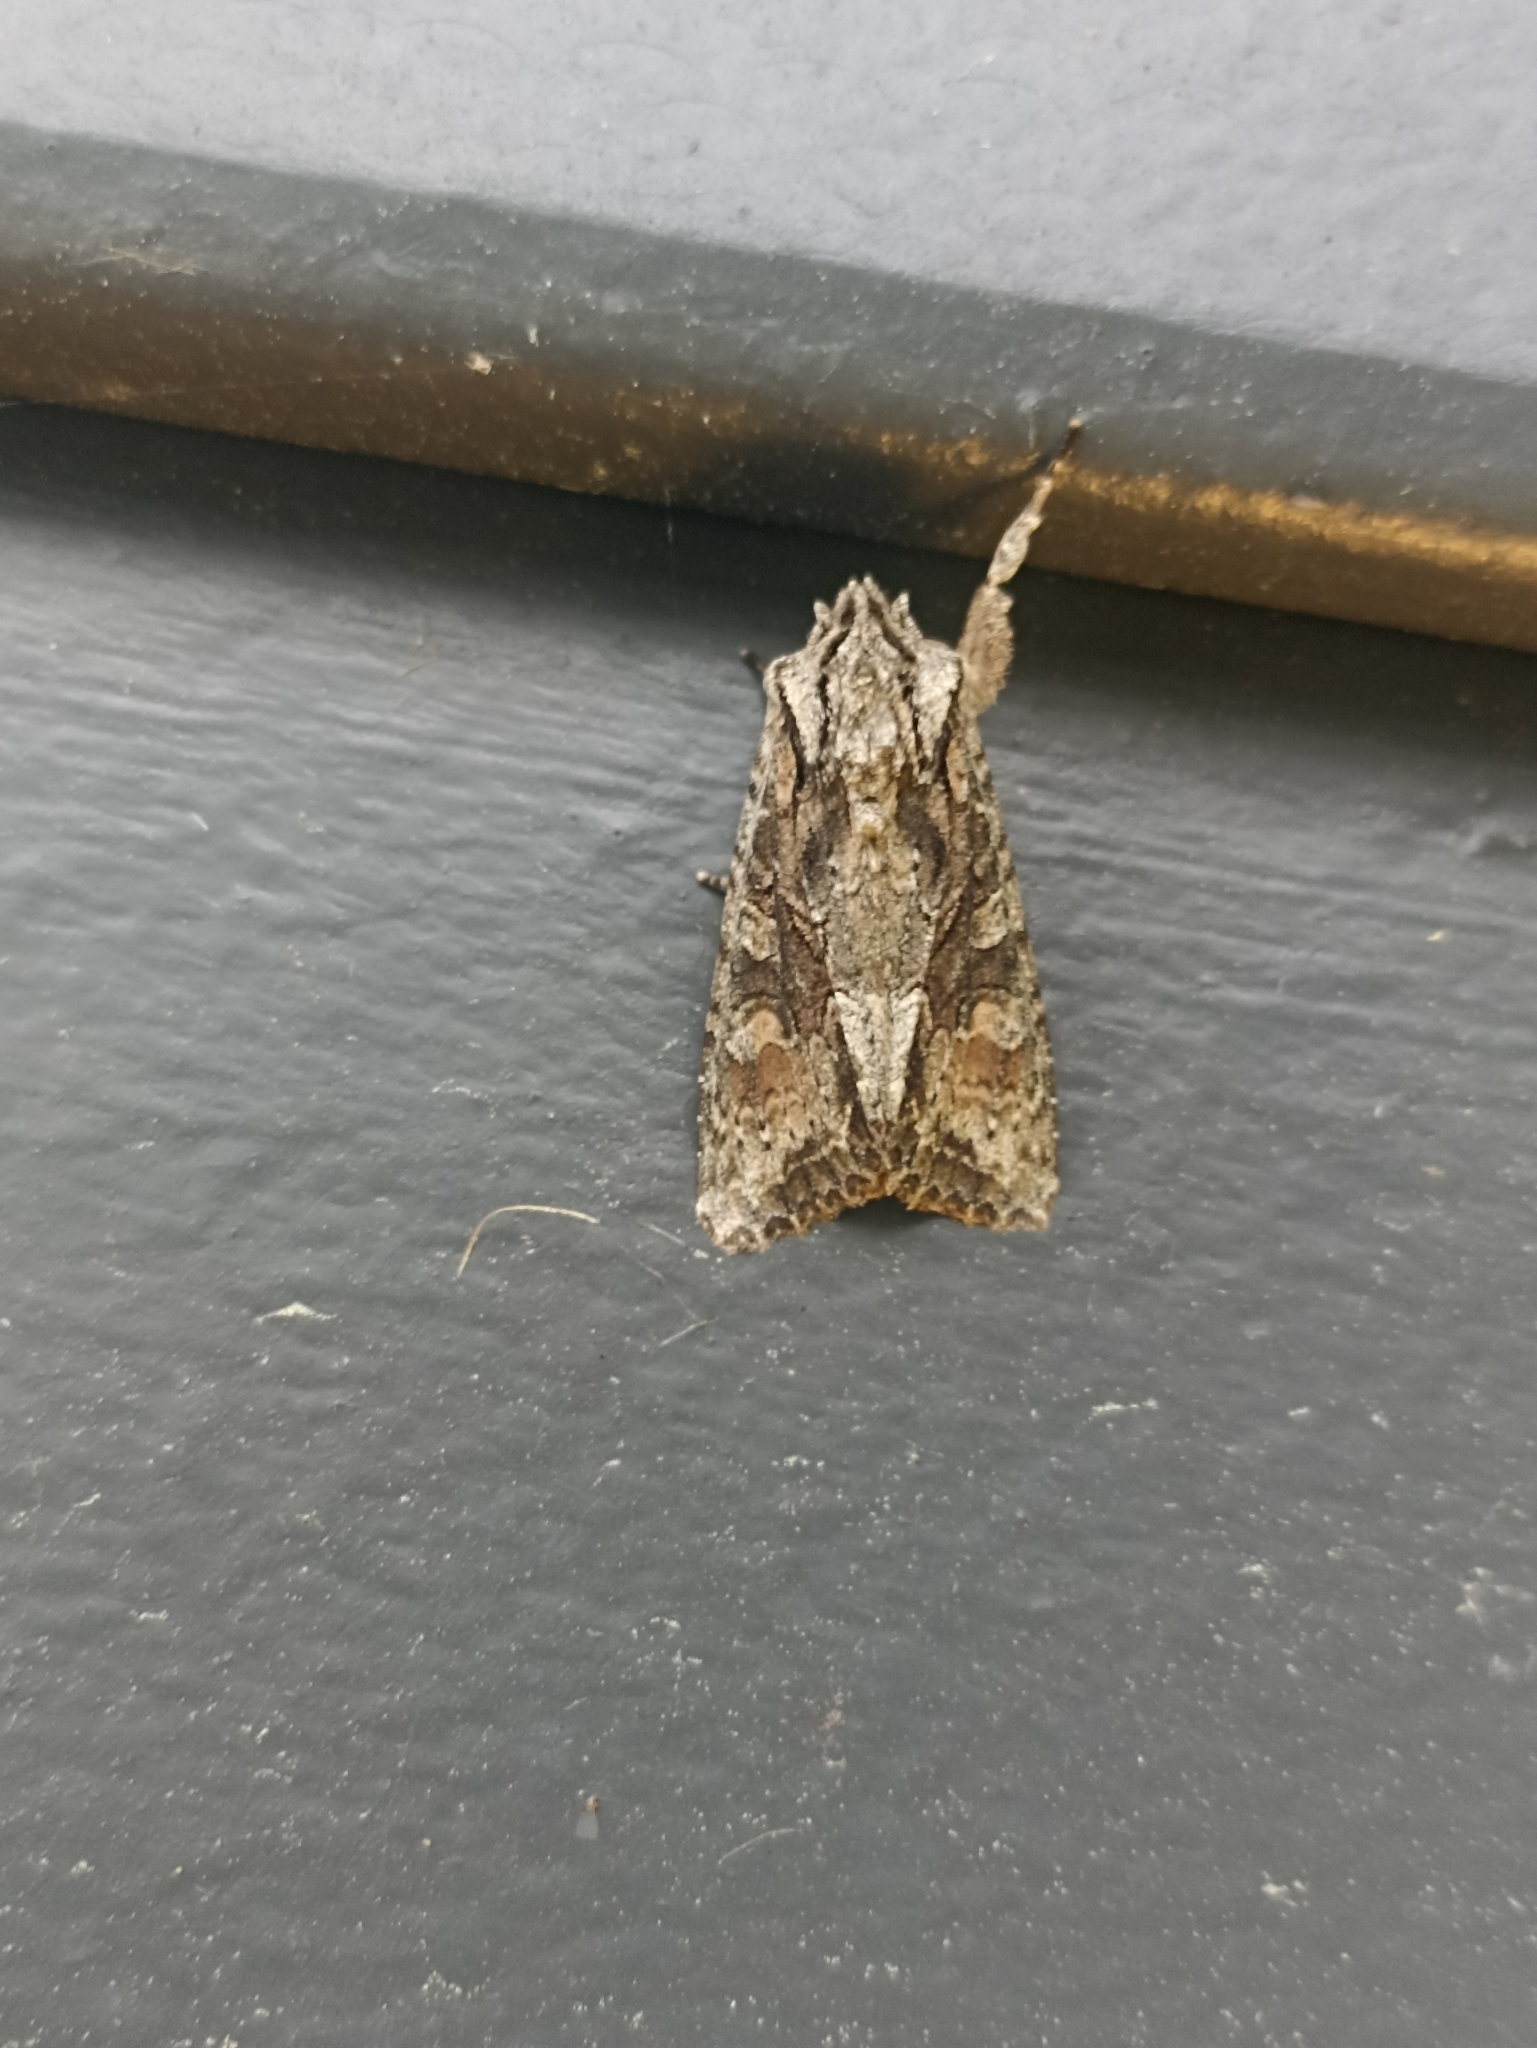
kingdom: Animalia
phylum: Arthropoda
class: Insecta
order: Lepidoptera
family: Noctuidae
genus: Ichneutica
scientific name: Ichneutica mutans
